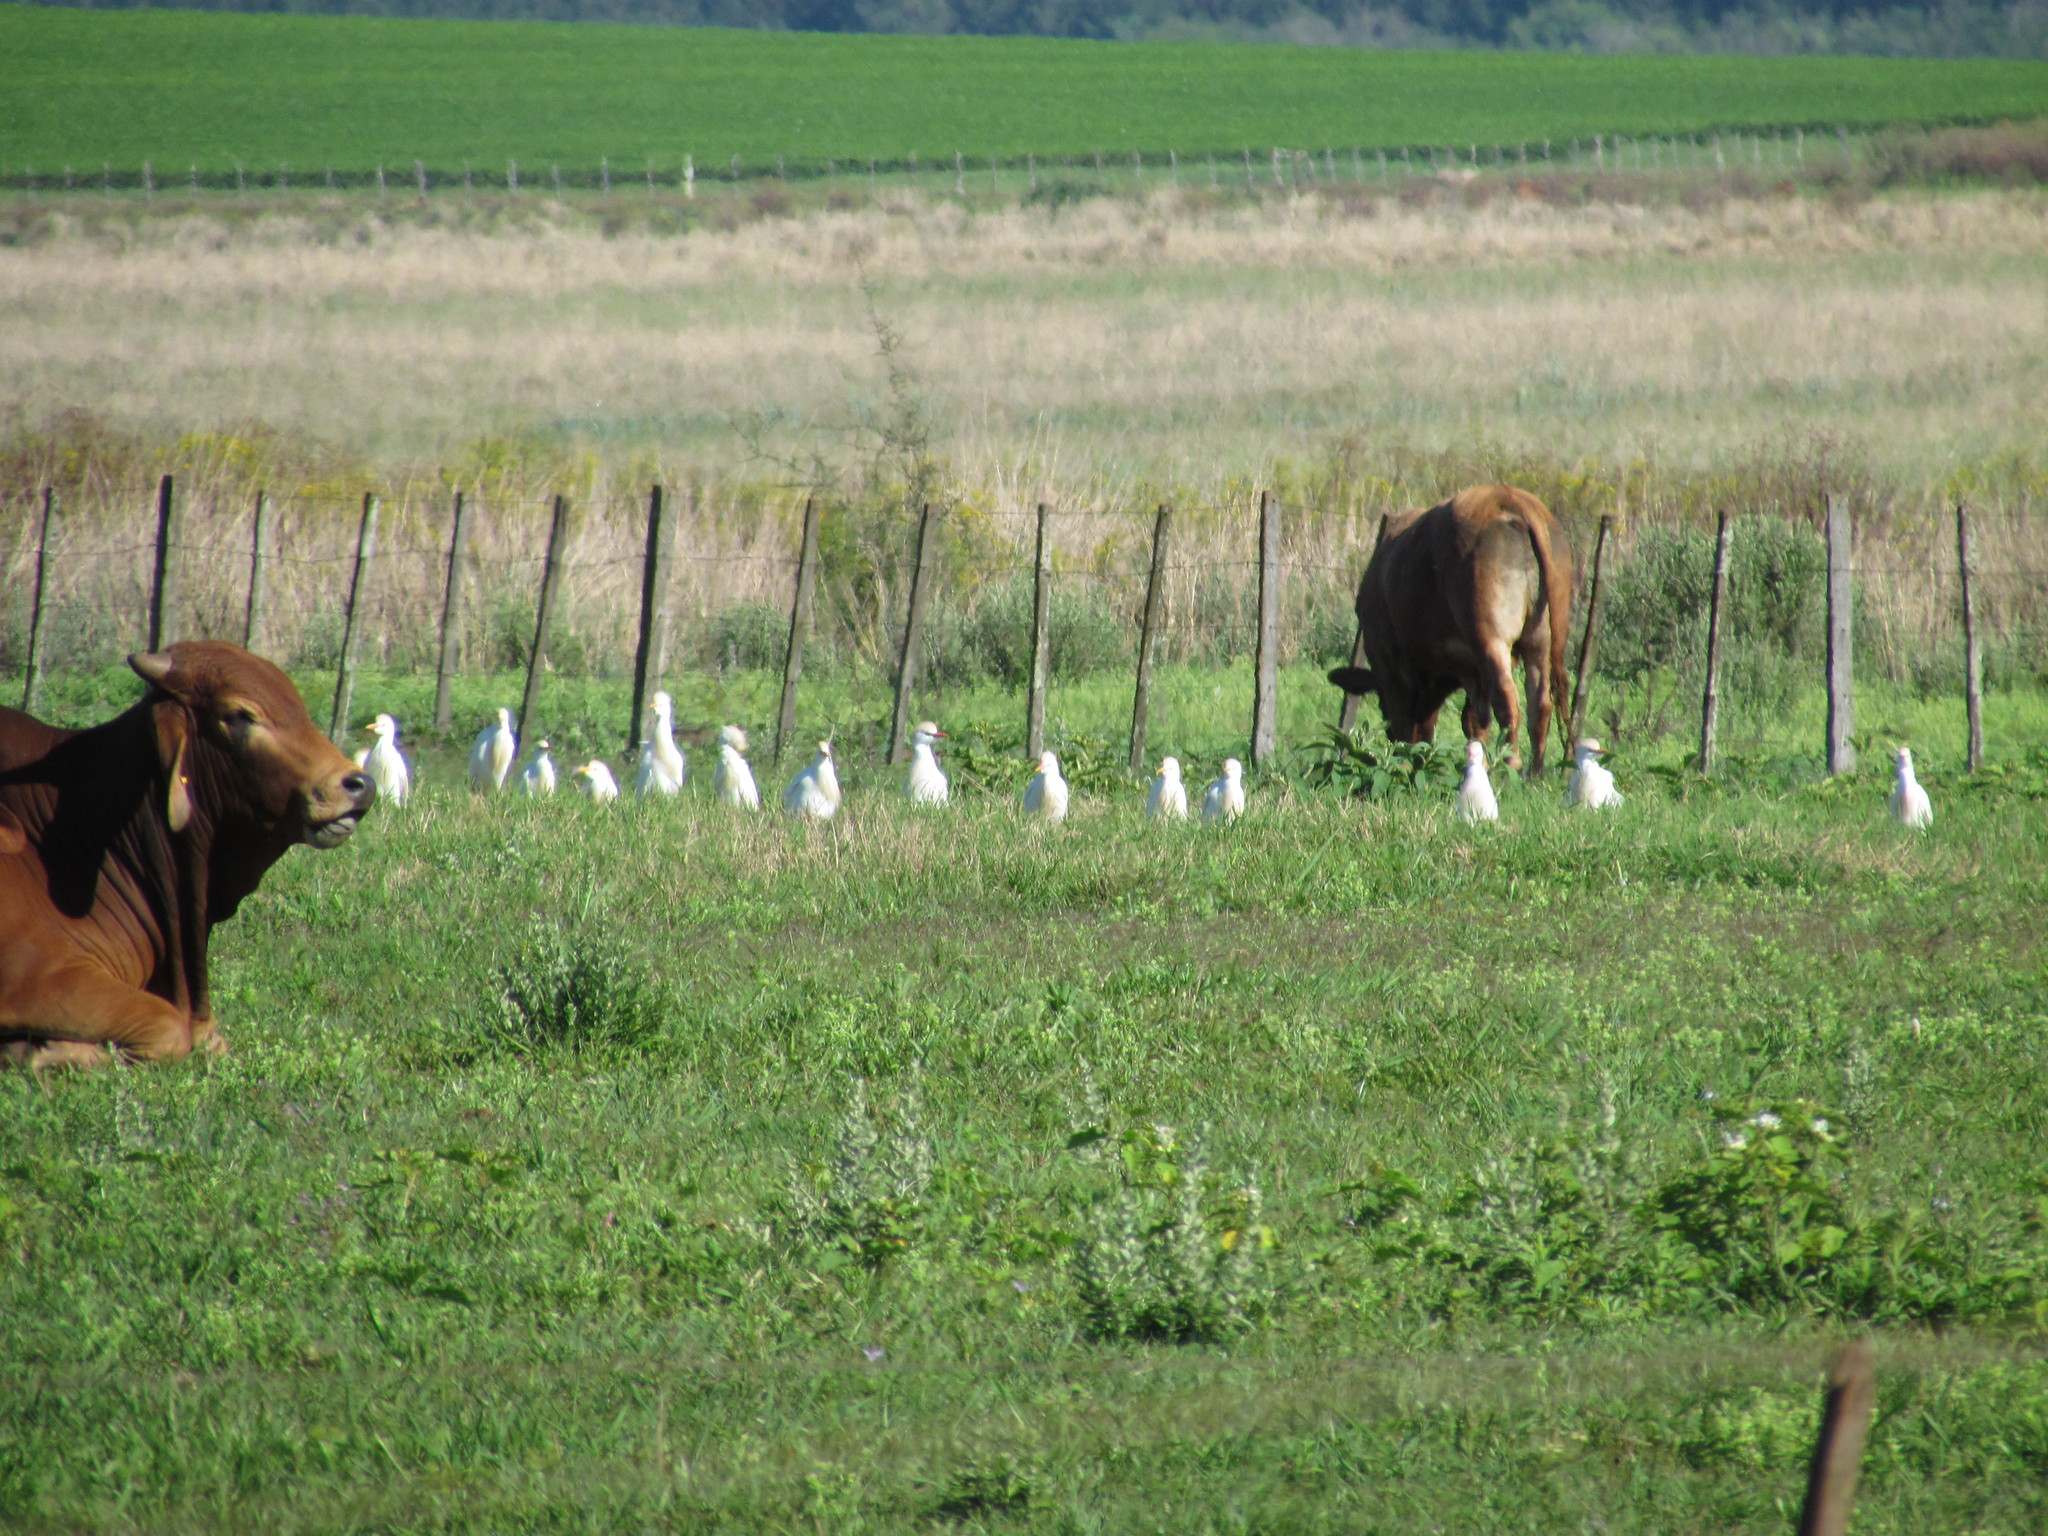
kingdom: Animalia
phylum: Chordata
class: Aves
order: Pelecaniformes
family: Ardeidae
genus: Bubulcus
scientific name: Bubulcus ibis
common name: Cattle egret
